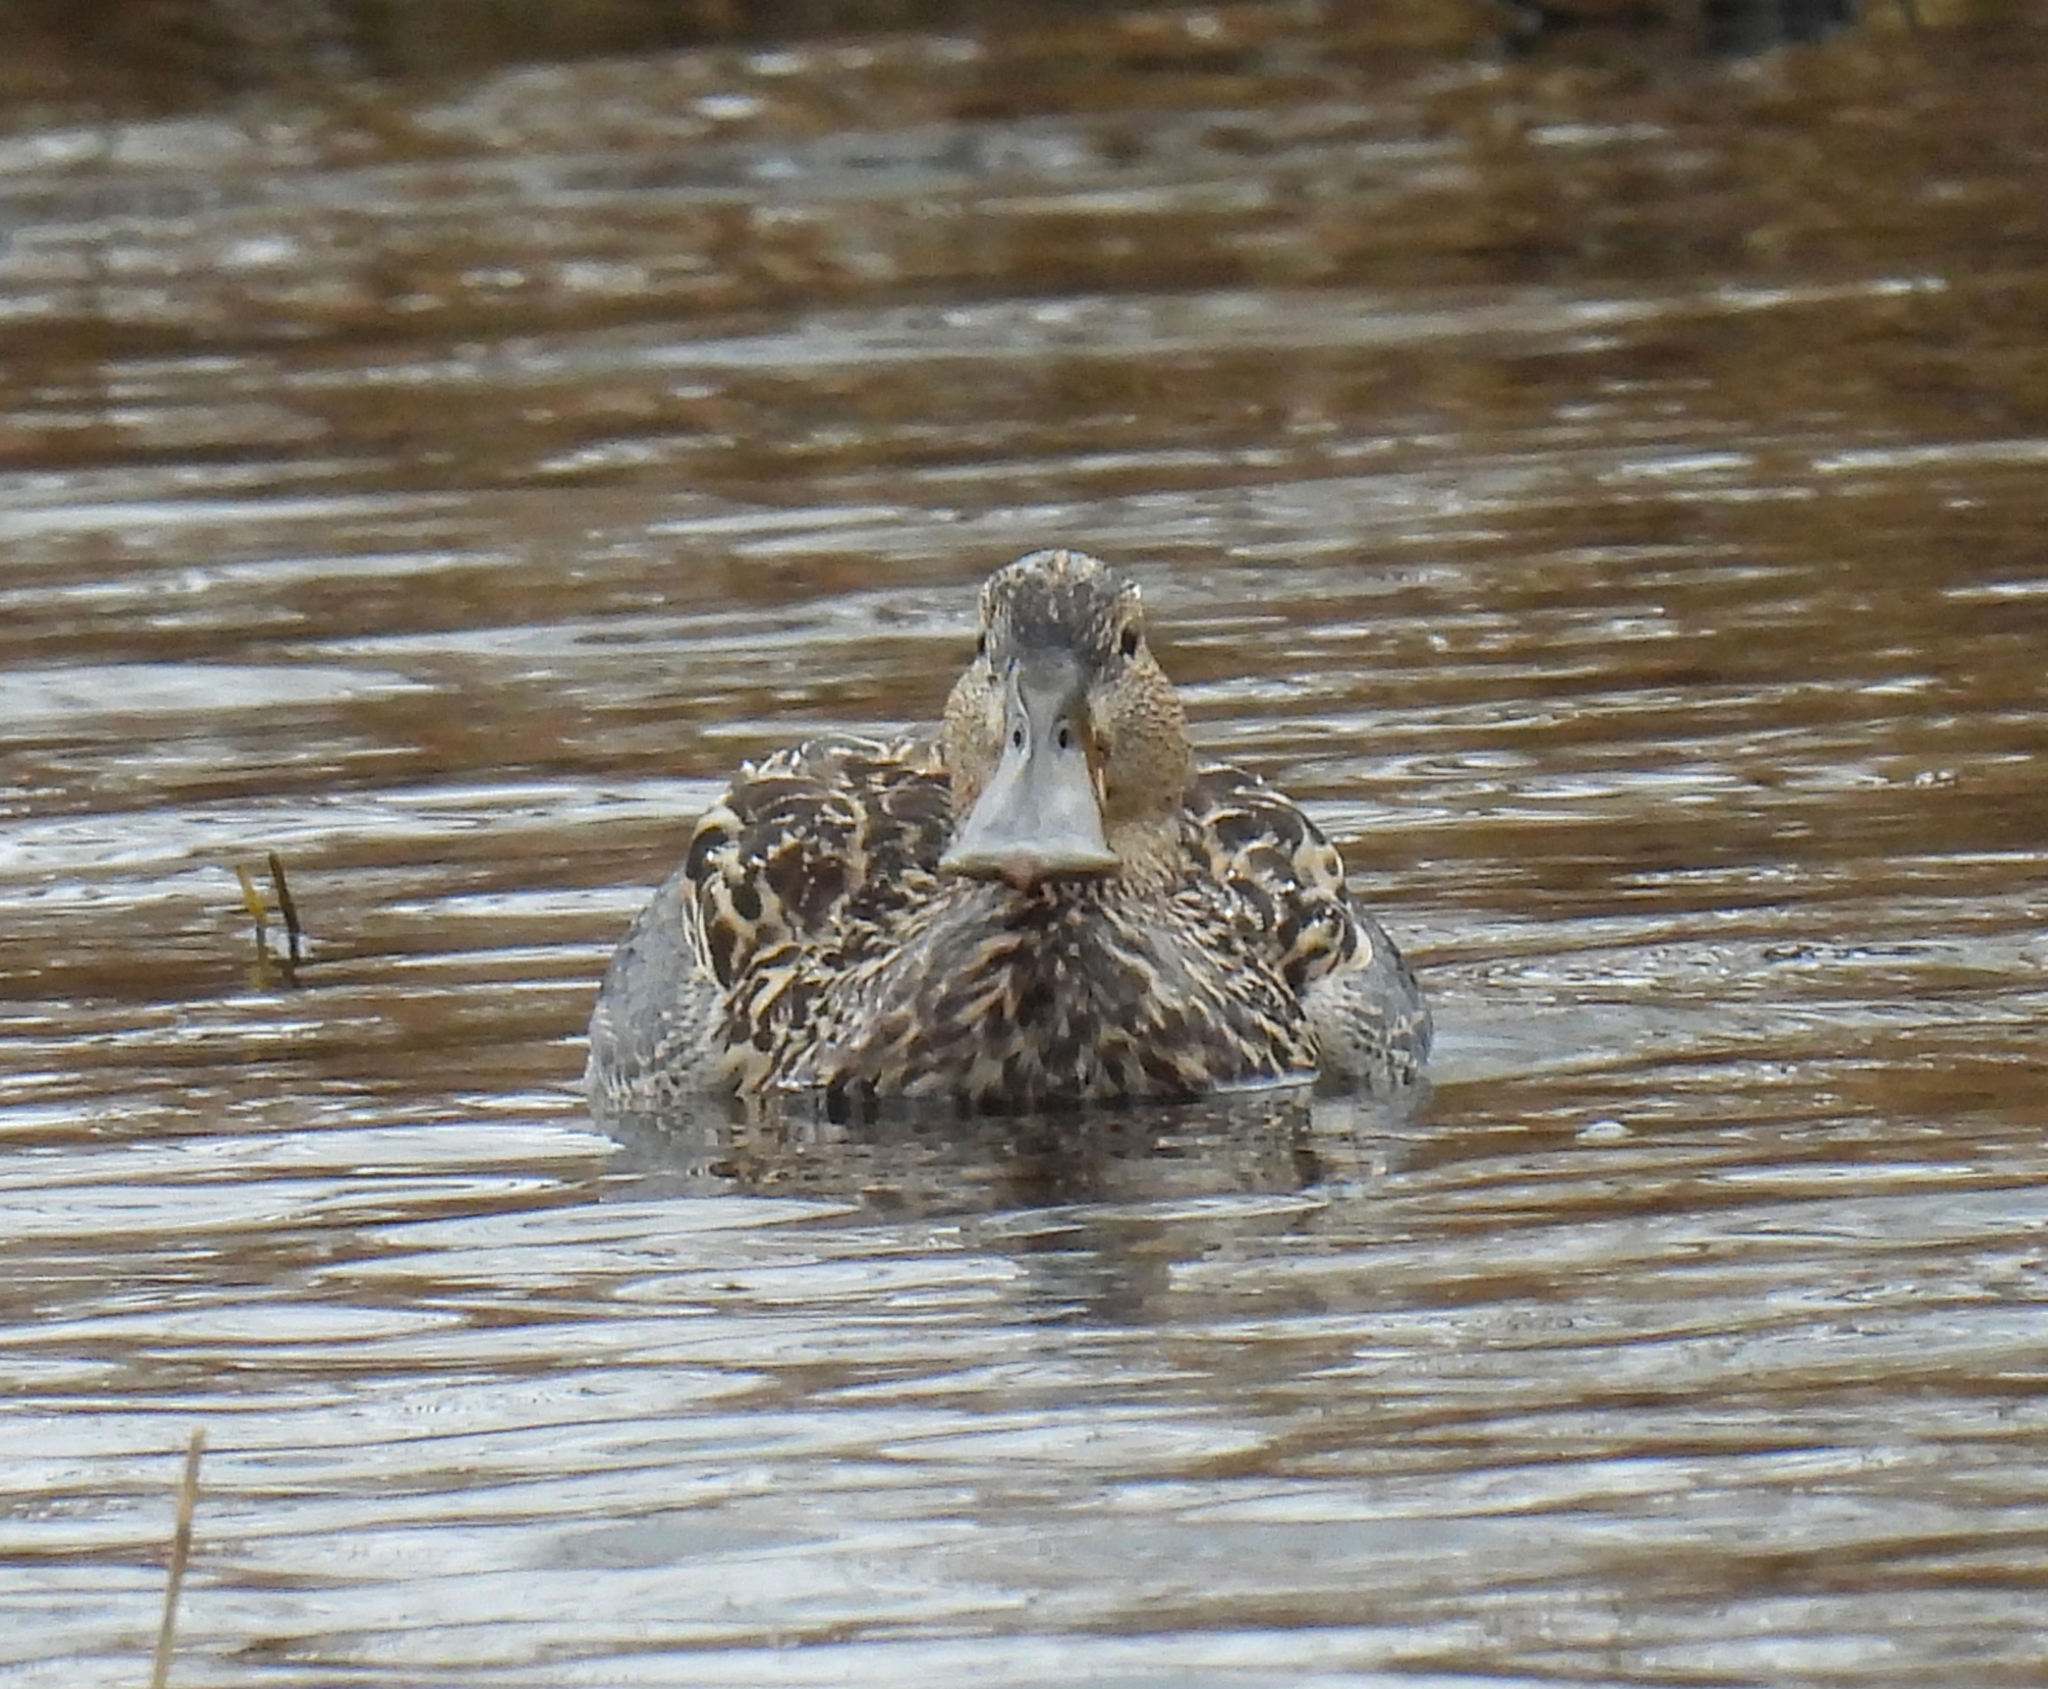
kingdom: Animalia
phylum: Chordata
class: Aves
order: Anseriformes
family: Anatidae
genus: Spatula
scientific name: Spatula clypeata
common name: Northern shoveler
